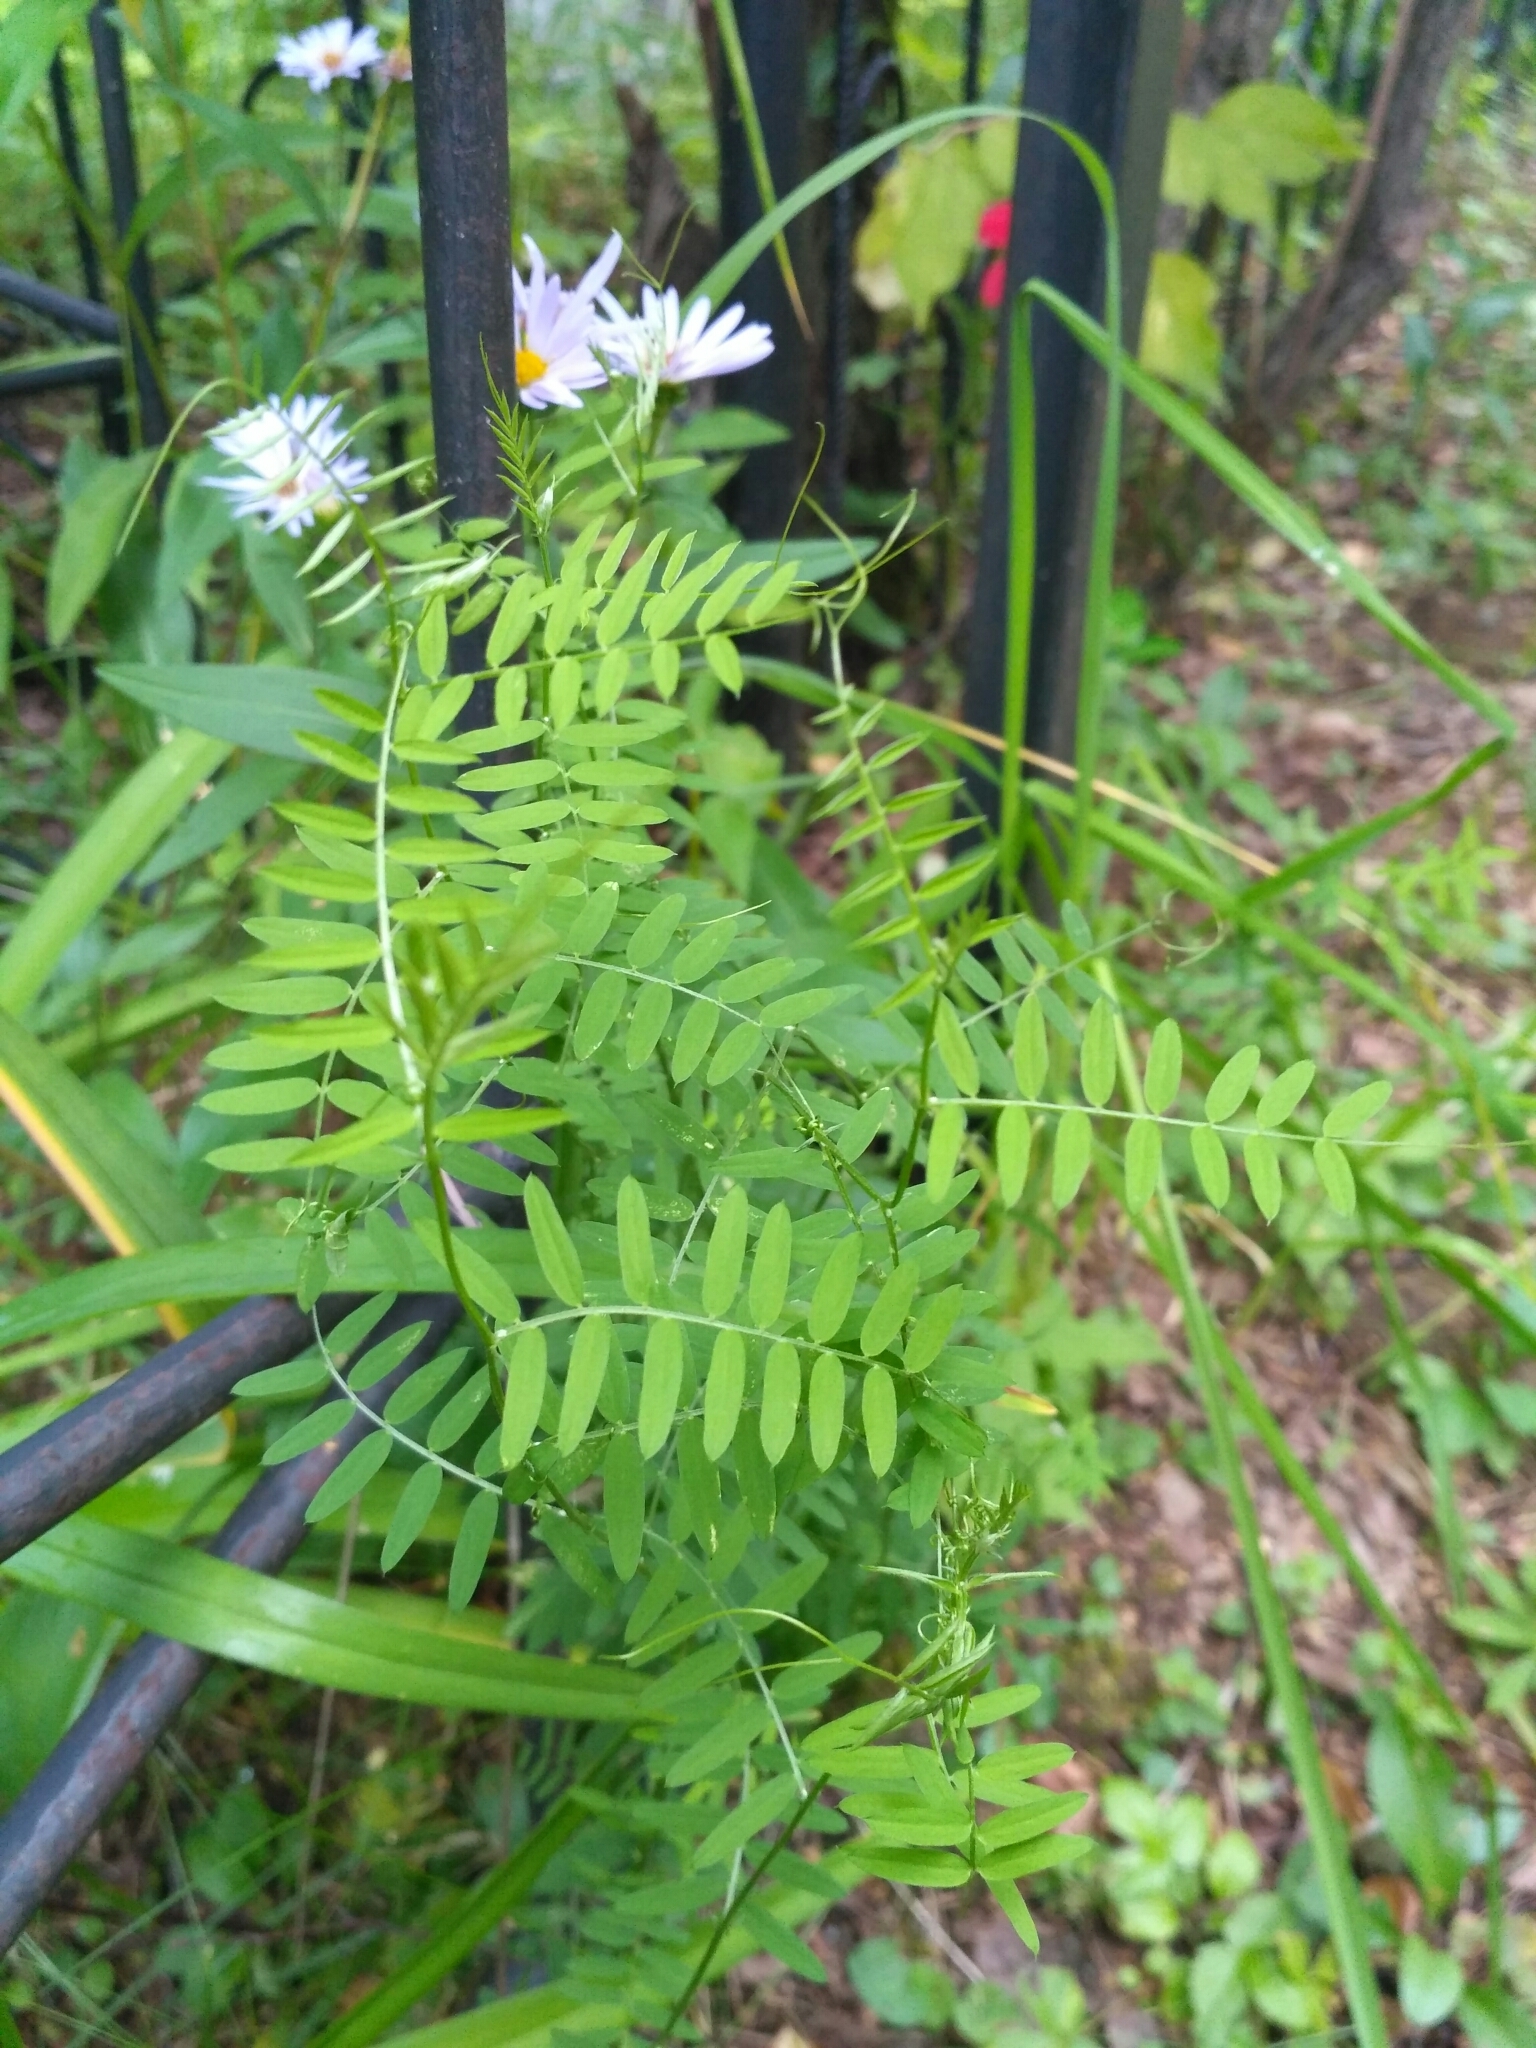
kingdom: Plantae
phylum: Tracheophyta
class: Magnoliopsida
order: Fabales
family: Fabaceae
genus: Vicia
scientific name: Vicia cracca
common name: Bird vetch
